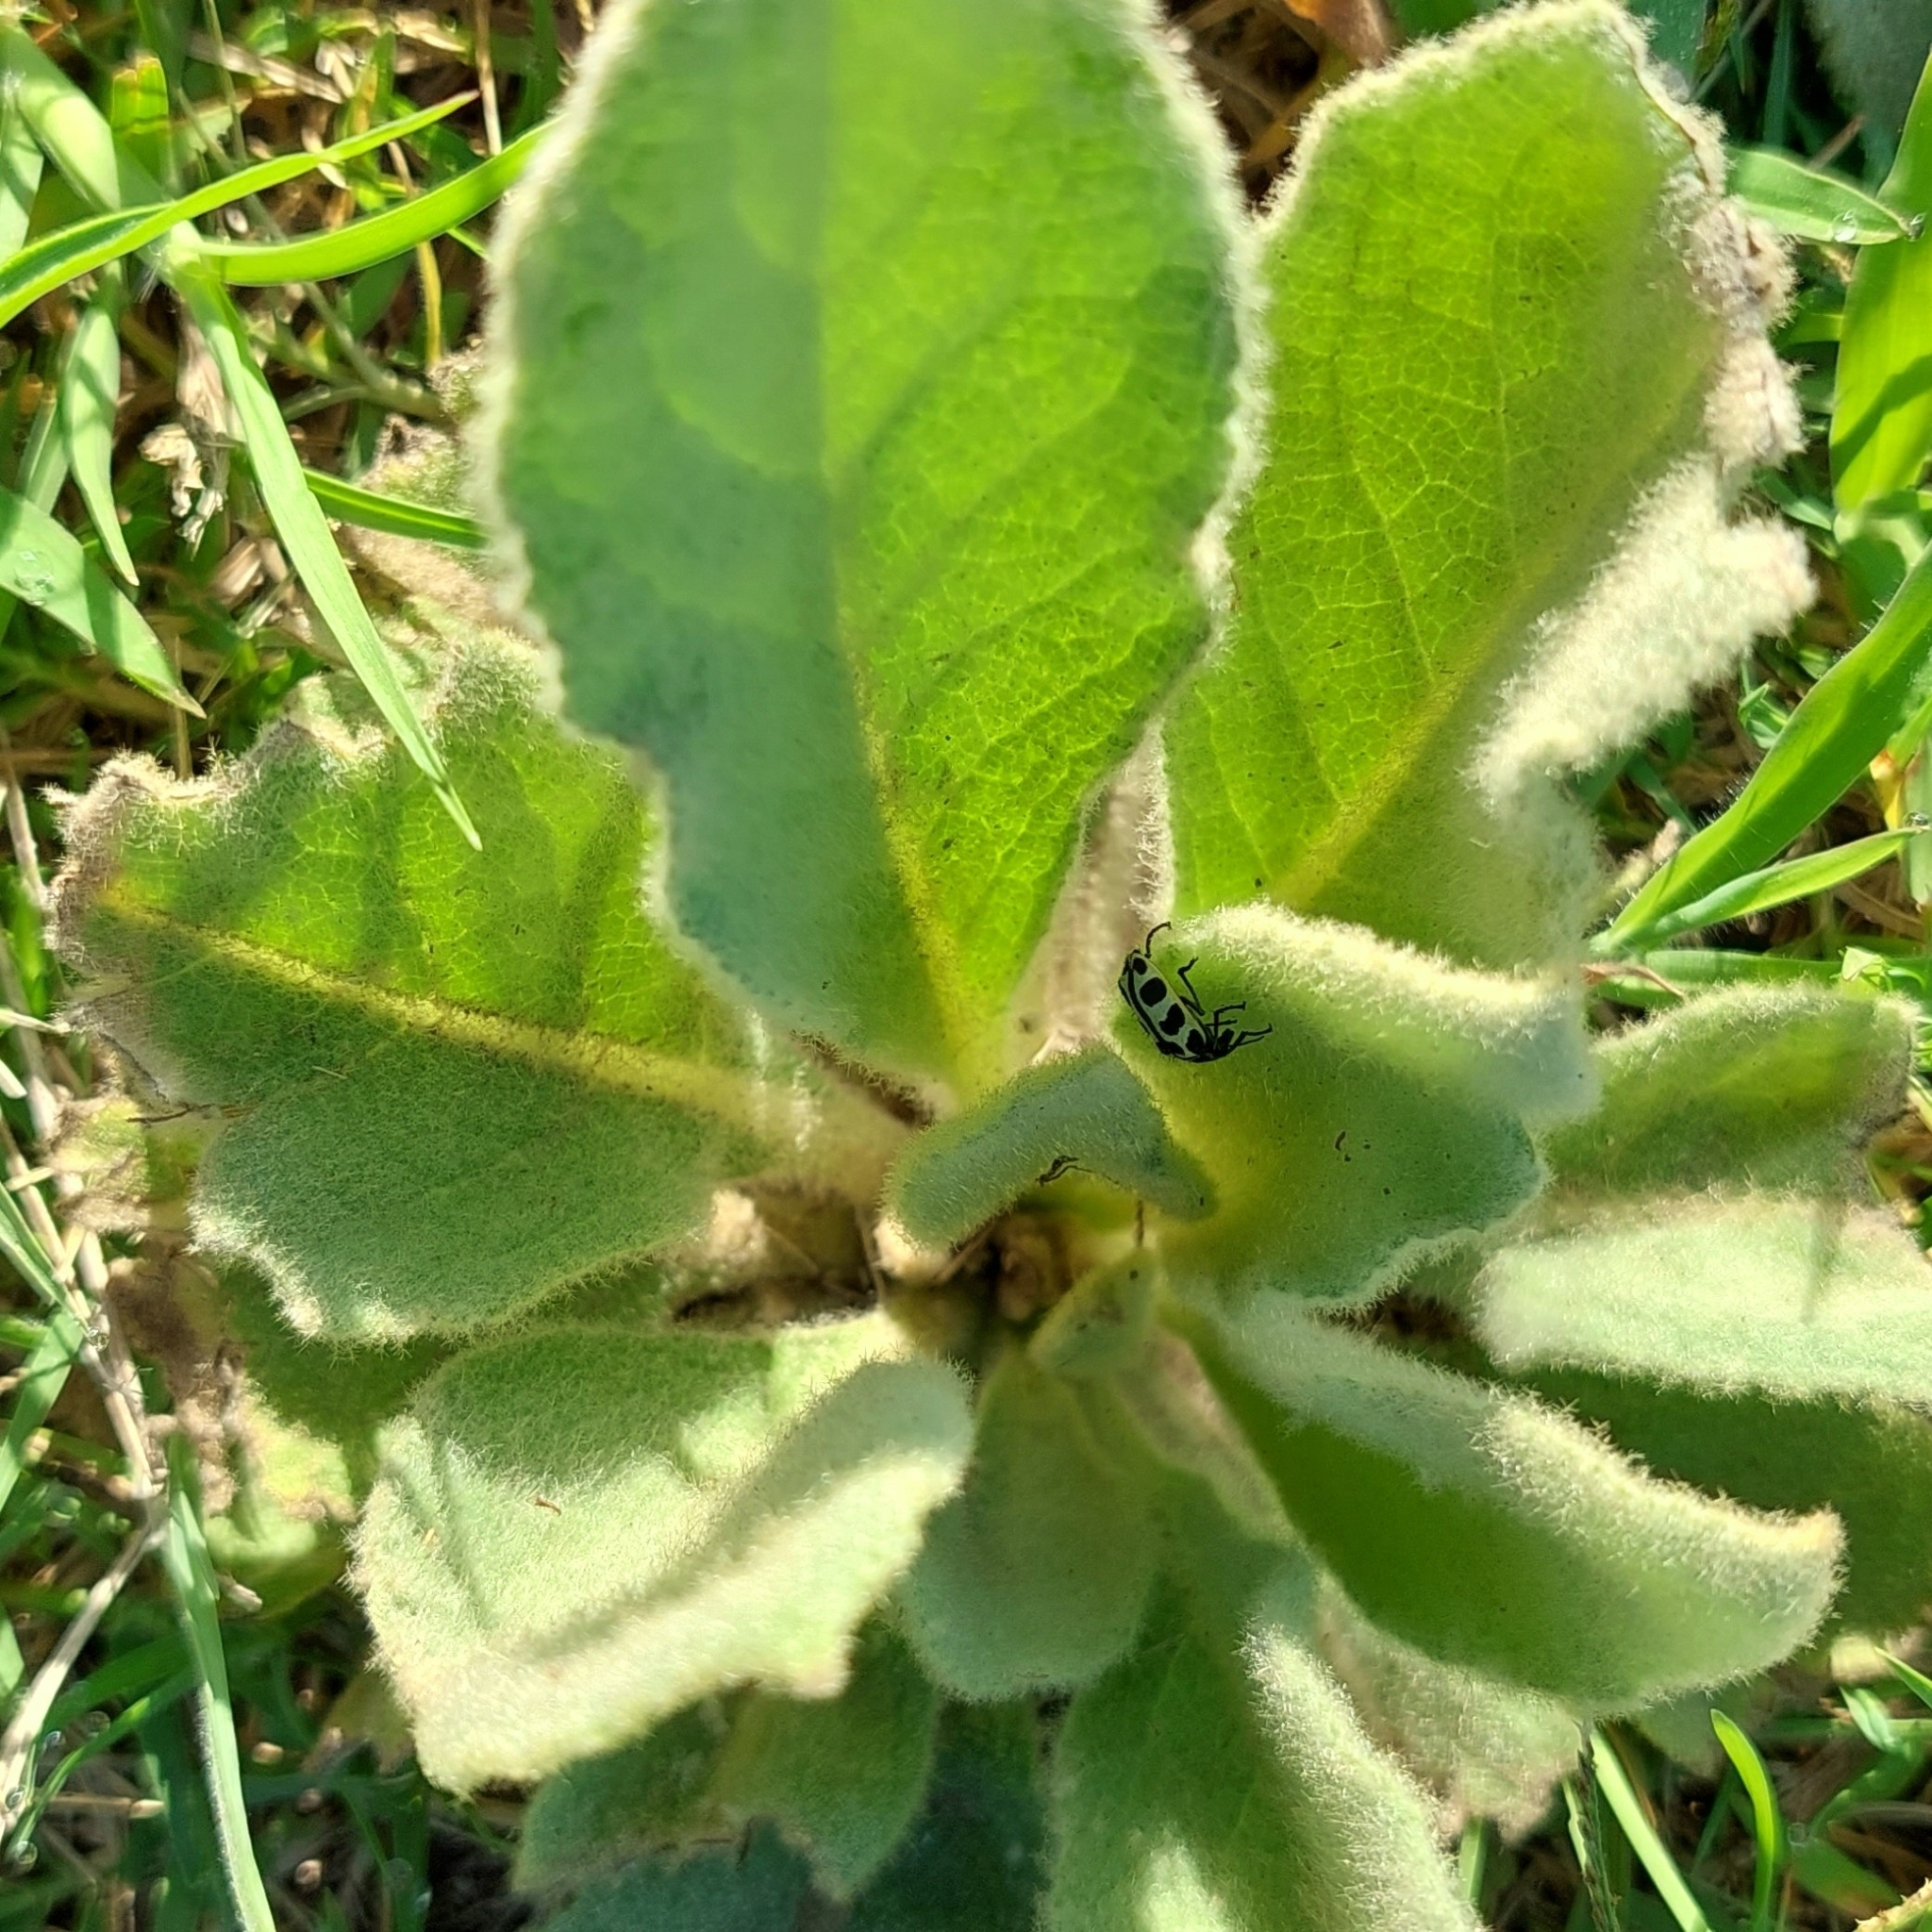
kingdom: Animalia
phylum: Arthropoda
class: Insecta
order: Coleoptera
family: Melyridae
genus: Astylus
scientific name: Astylus atromaculatus
